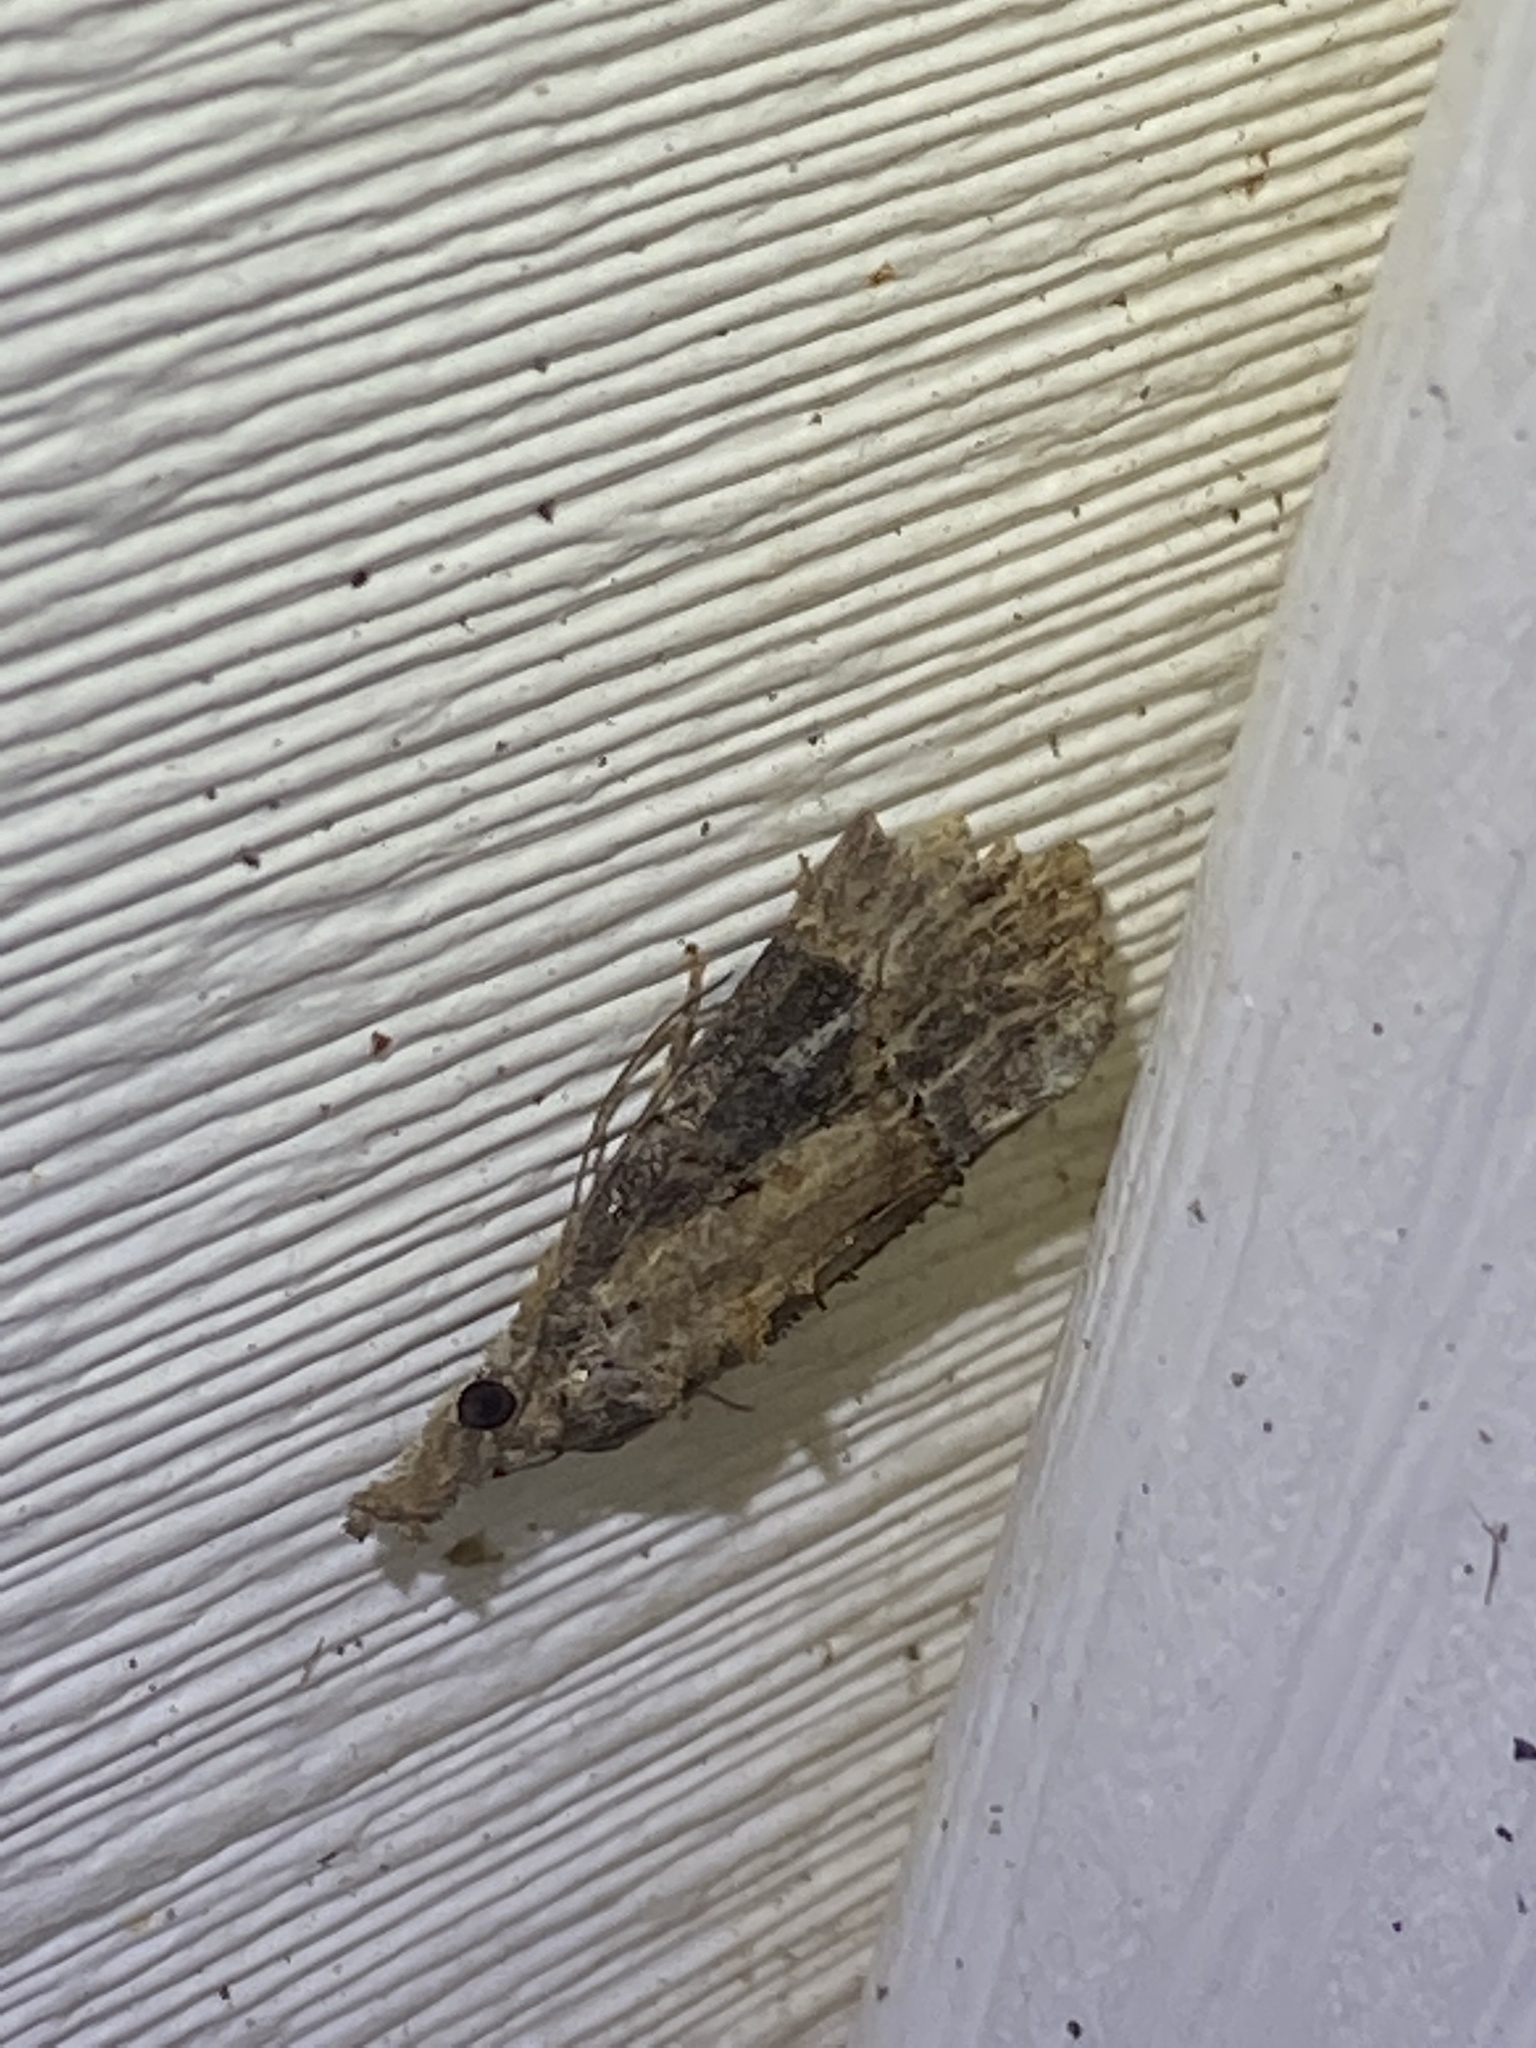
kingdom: Animalia
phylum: Arthropoda
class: Insecta
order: Lepidoptera
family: Erebidae
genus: Hypena
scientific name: Hypena scabra
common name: Green cloverworm
